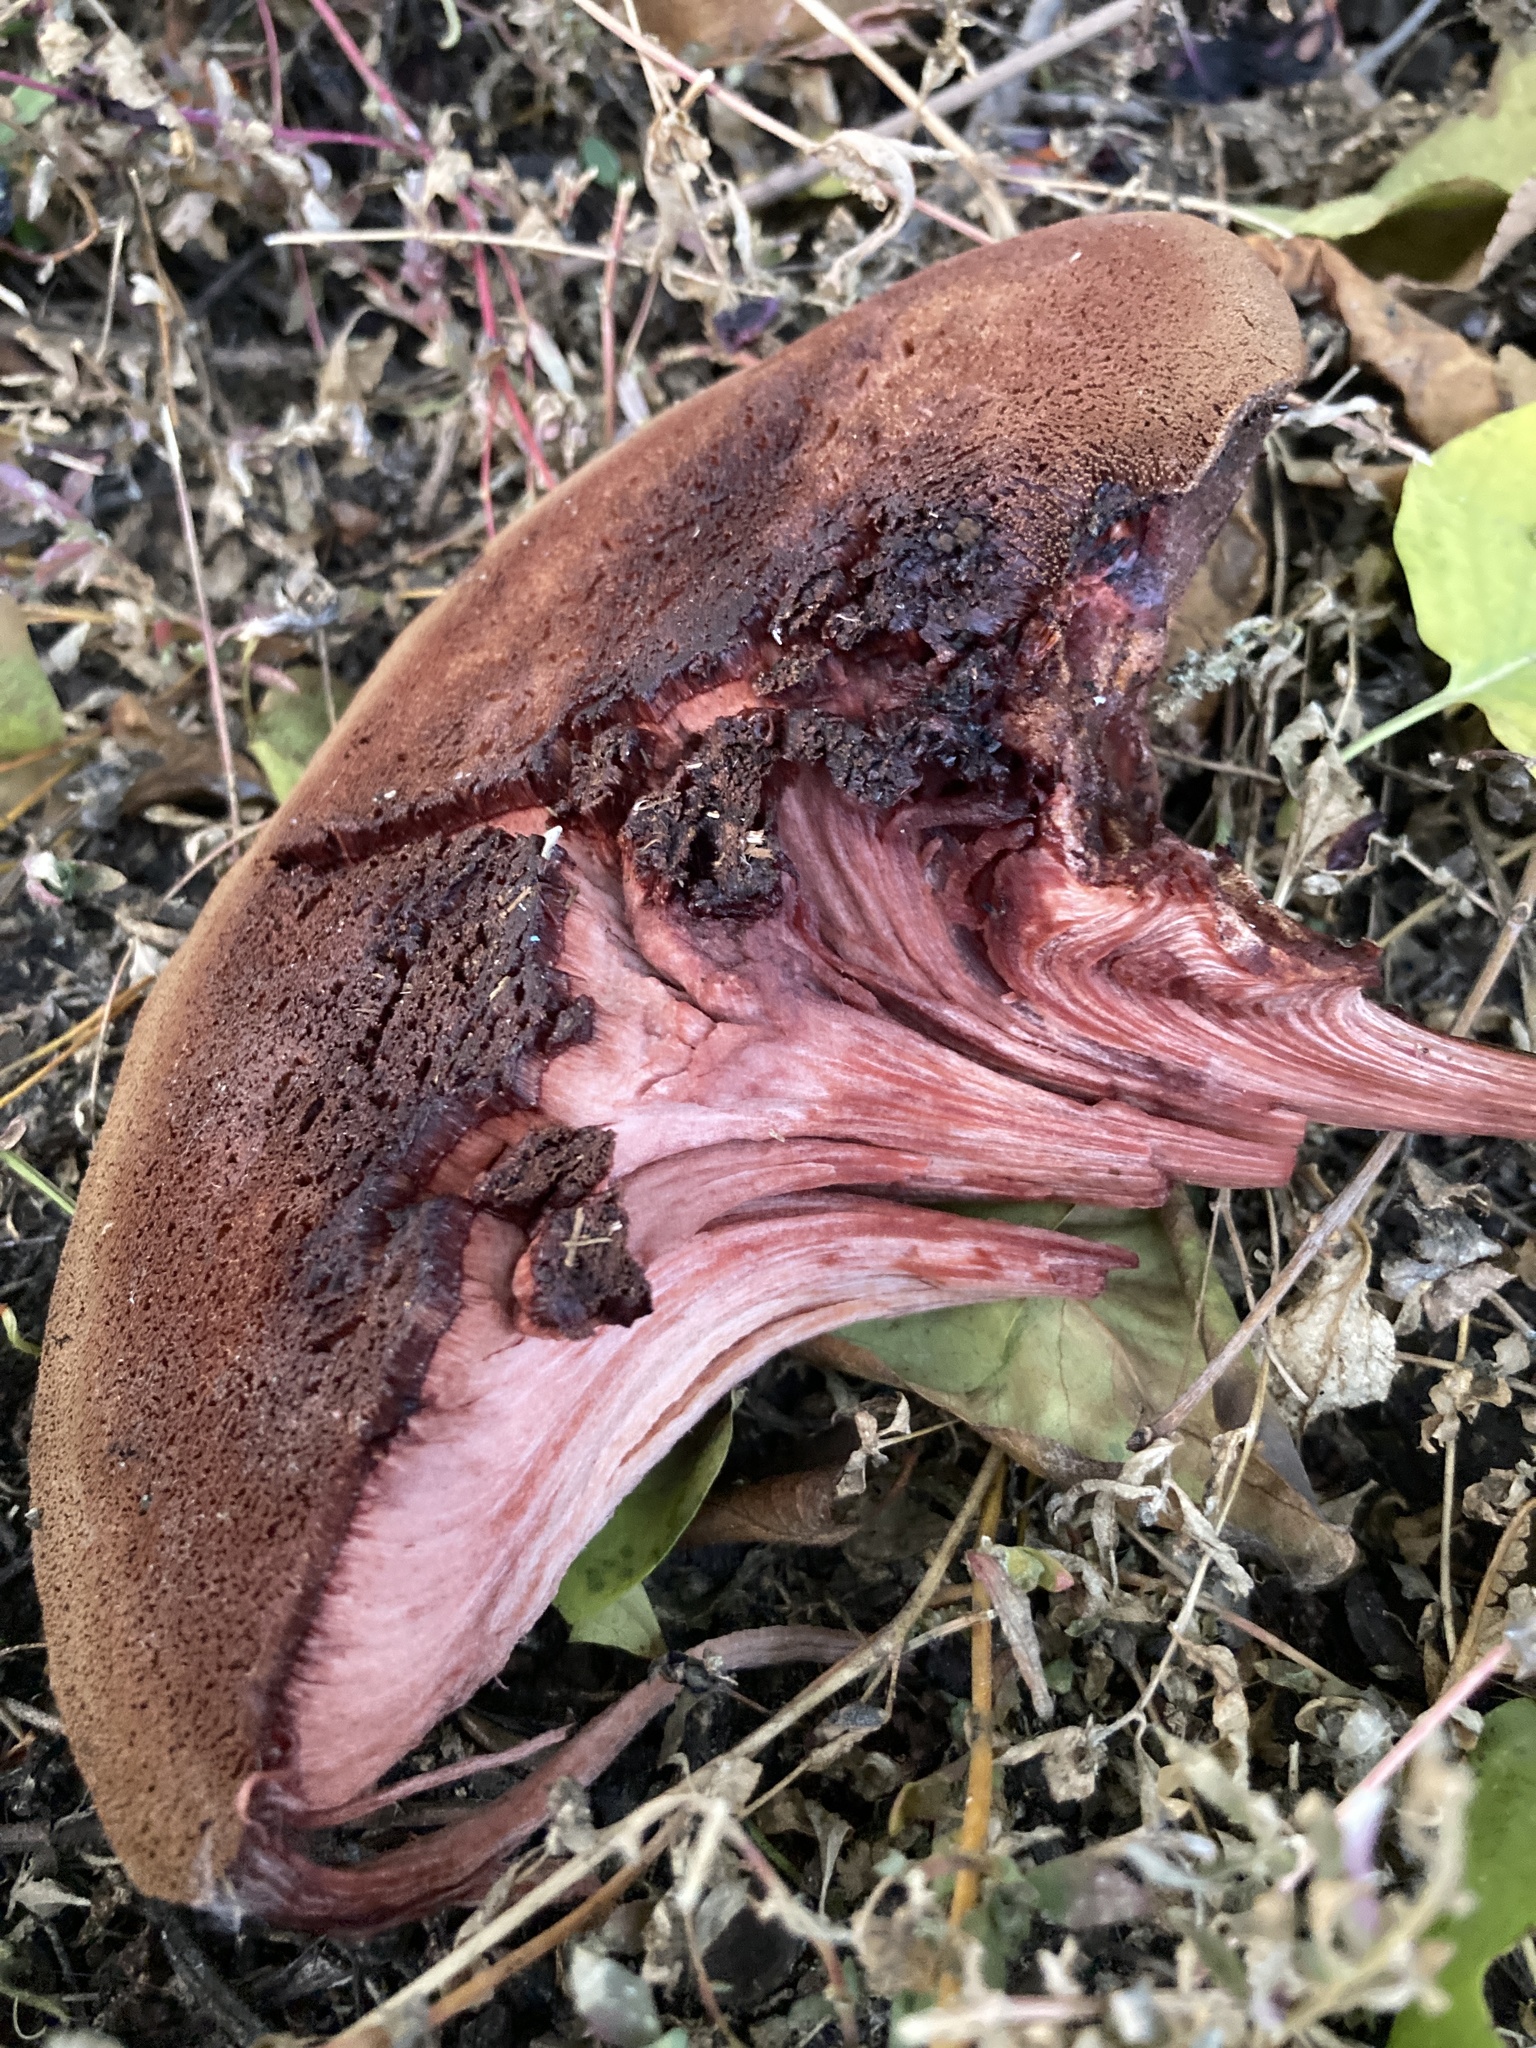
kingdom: Fungi
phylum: Basidiomycota
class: Agaricomycetes
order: Agaricales
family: Fistulinaceae
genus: Fistulina
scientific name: Fistulina hepatica
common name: Beef-steak fungus
